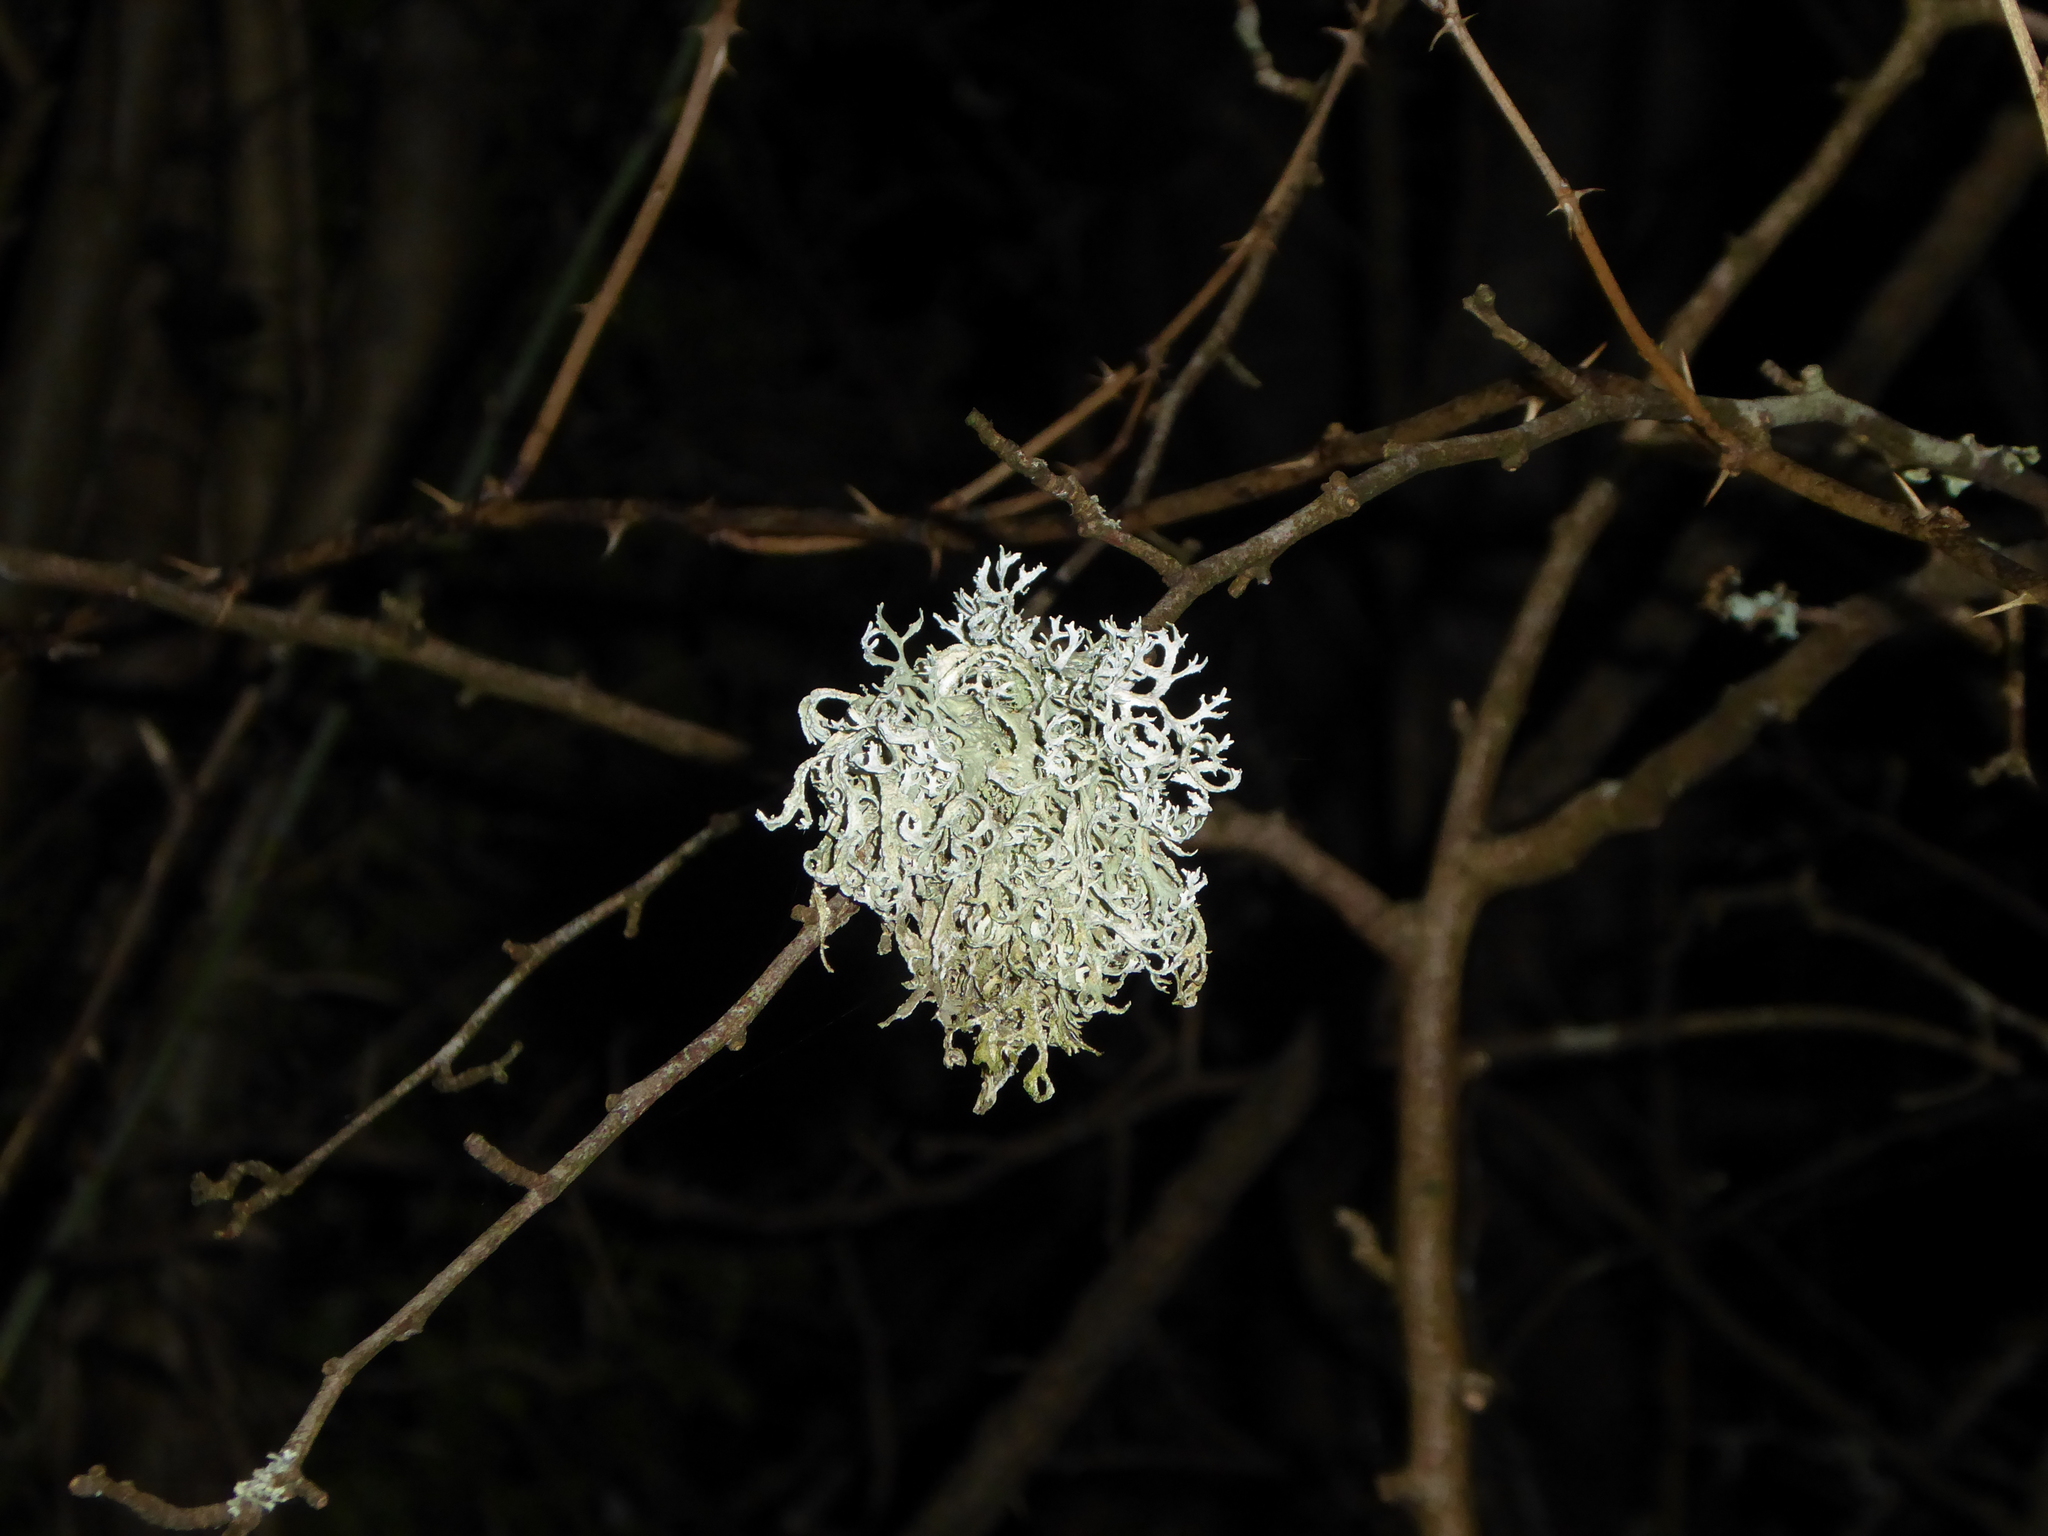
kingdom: Fungi
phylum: Ascomycota
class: Lecanoromycetes
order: Lecanorales
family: Parmeliaceae
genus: Evernia
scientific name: Evernia prunastri
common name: Oak moss
